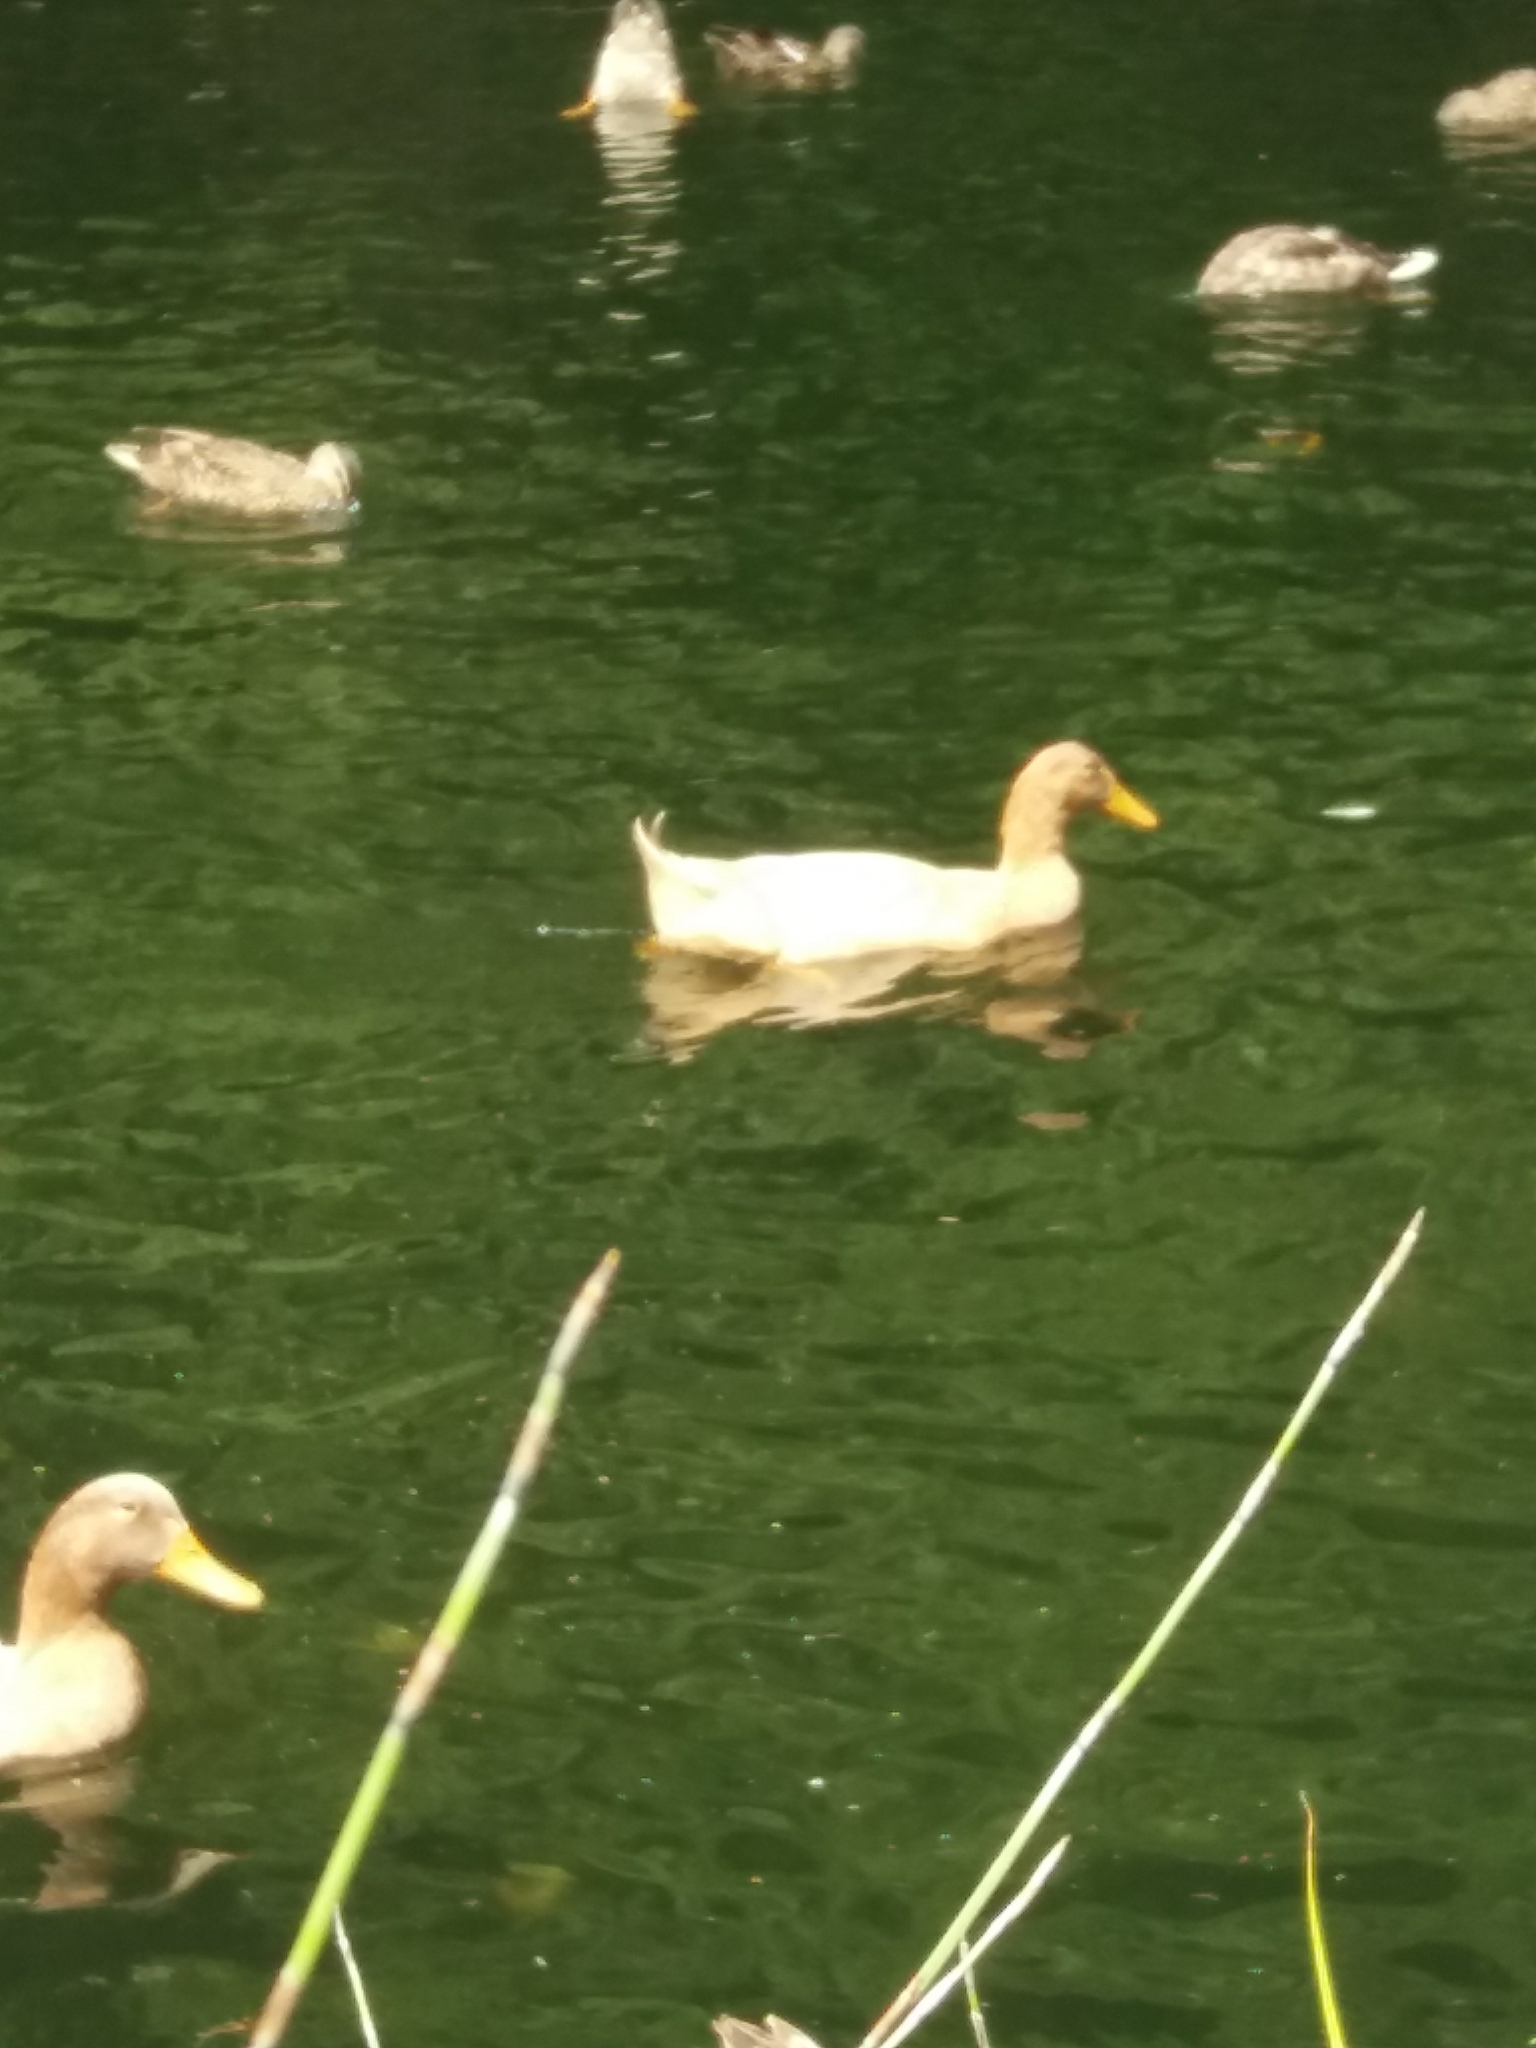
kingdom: Animalia
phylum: Chordata
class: Aves
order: Anseriformes
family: Anatidae
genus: Anas
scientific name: Anas platyrhynchos
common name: Mallard
